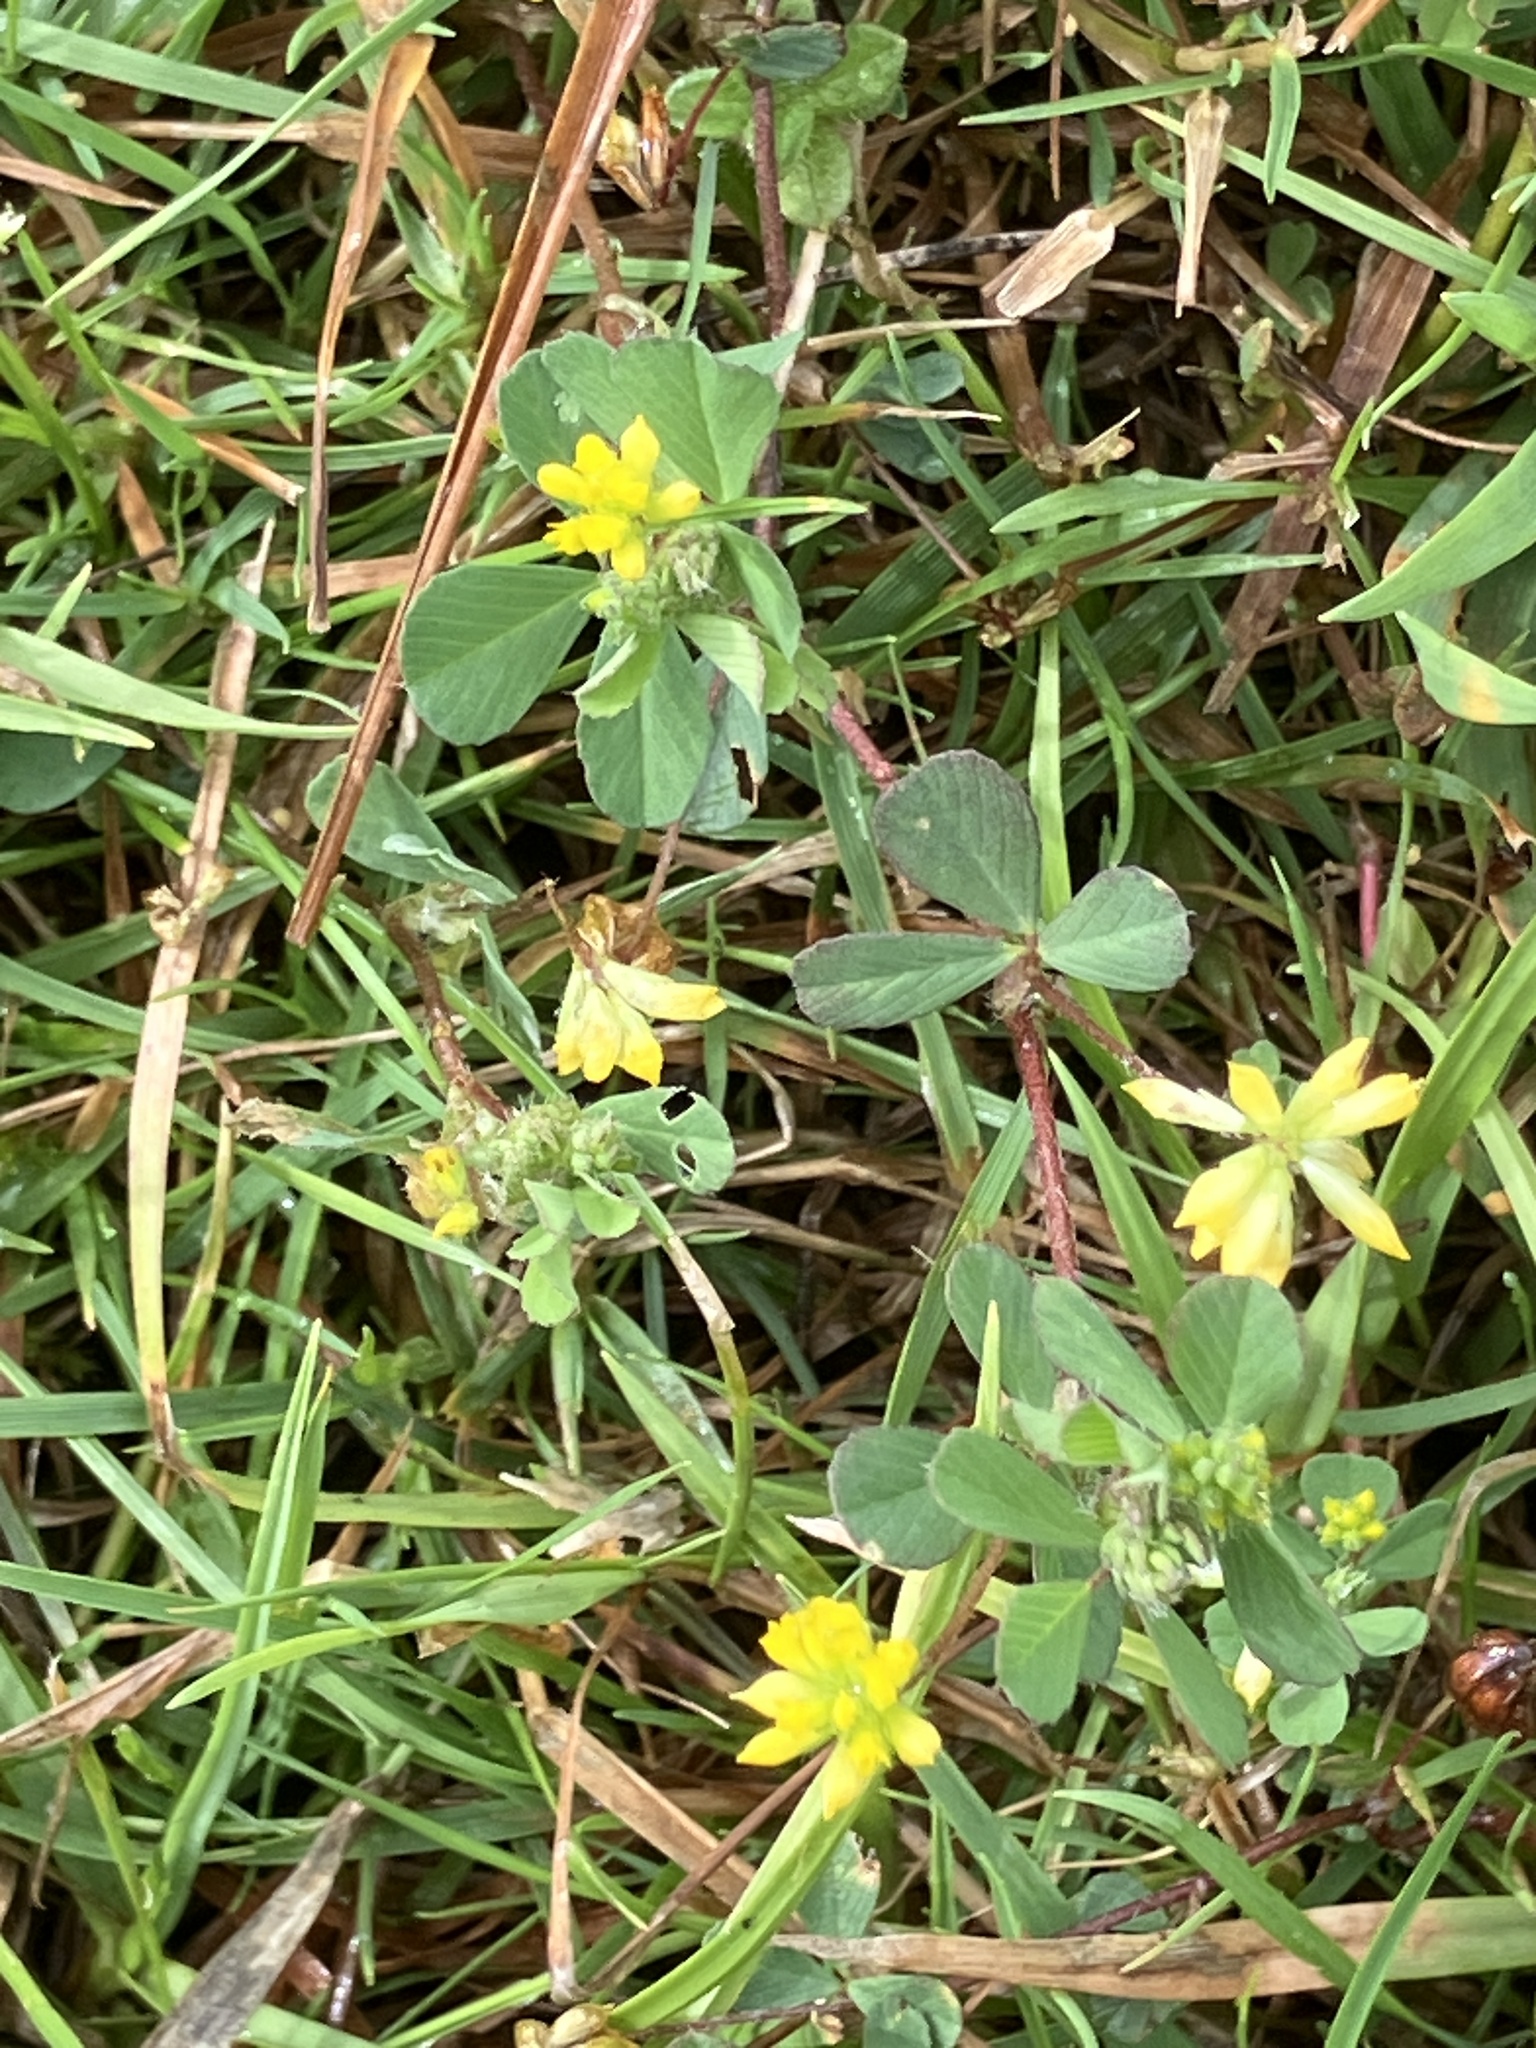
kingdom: Plantae
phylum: Tracheophyta
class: Magnoliopsida
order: Fabales
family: Fabaceae
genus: Trifolium
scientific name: Trifolium dubium
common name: Suckling clover
